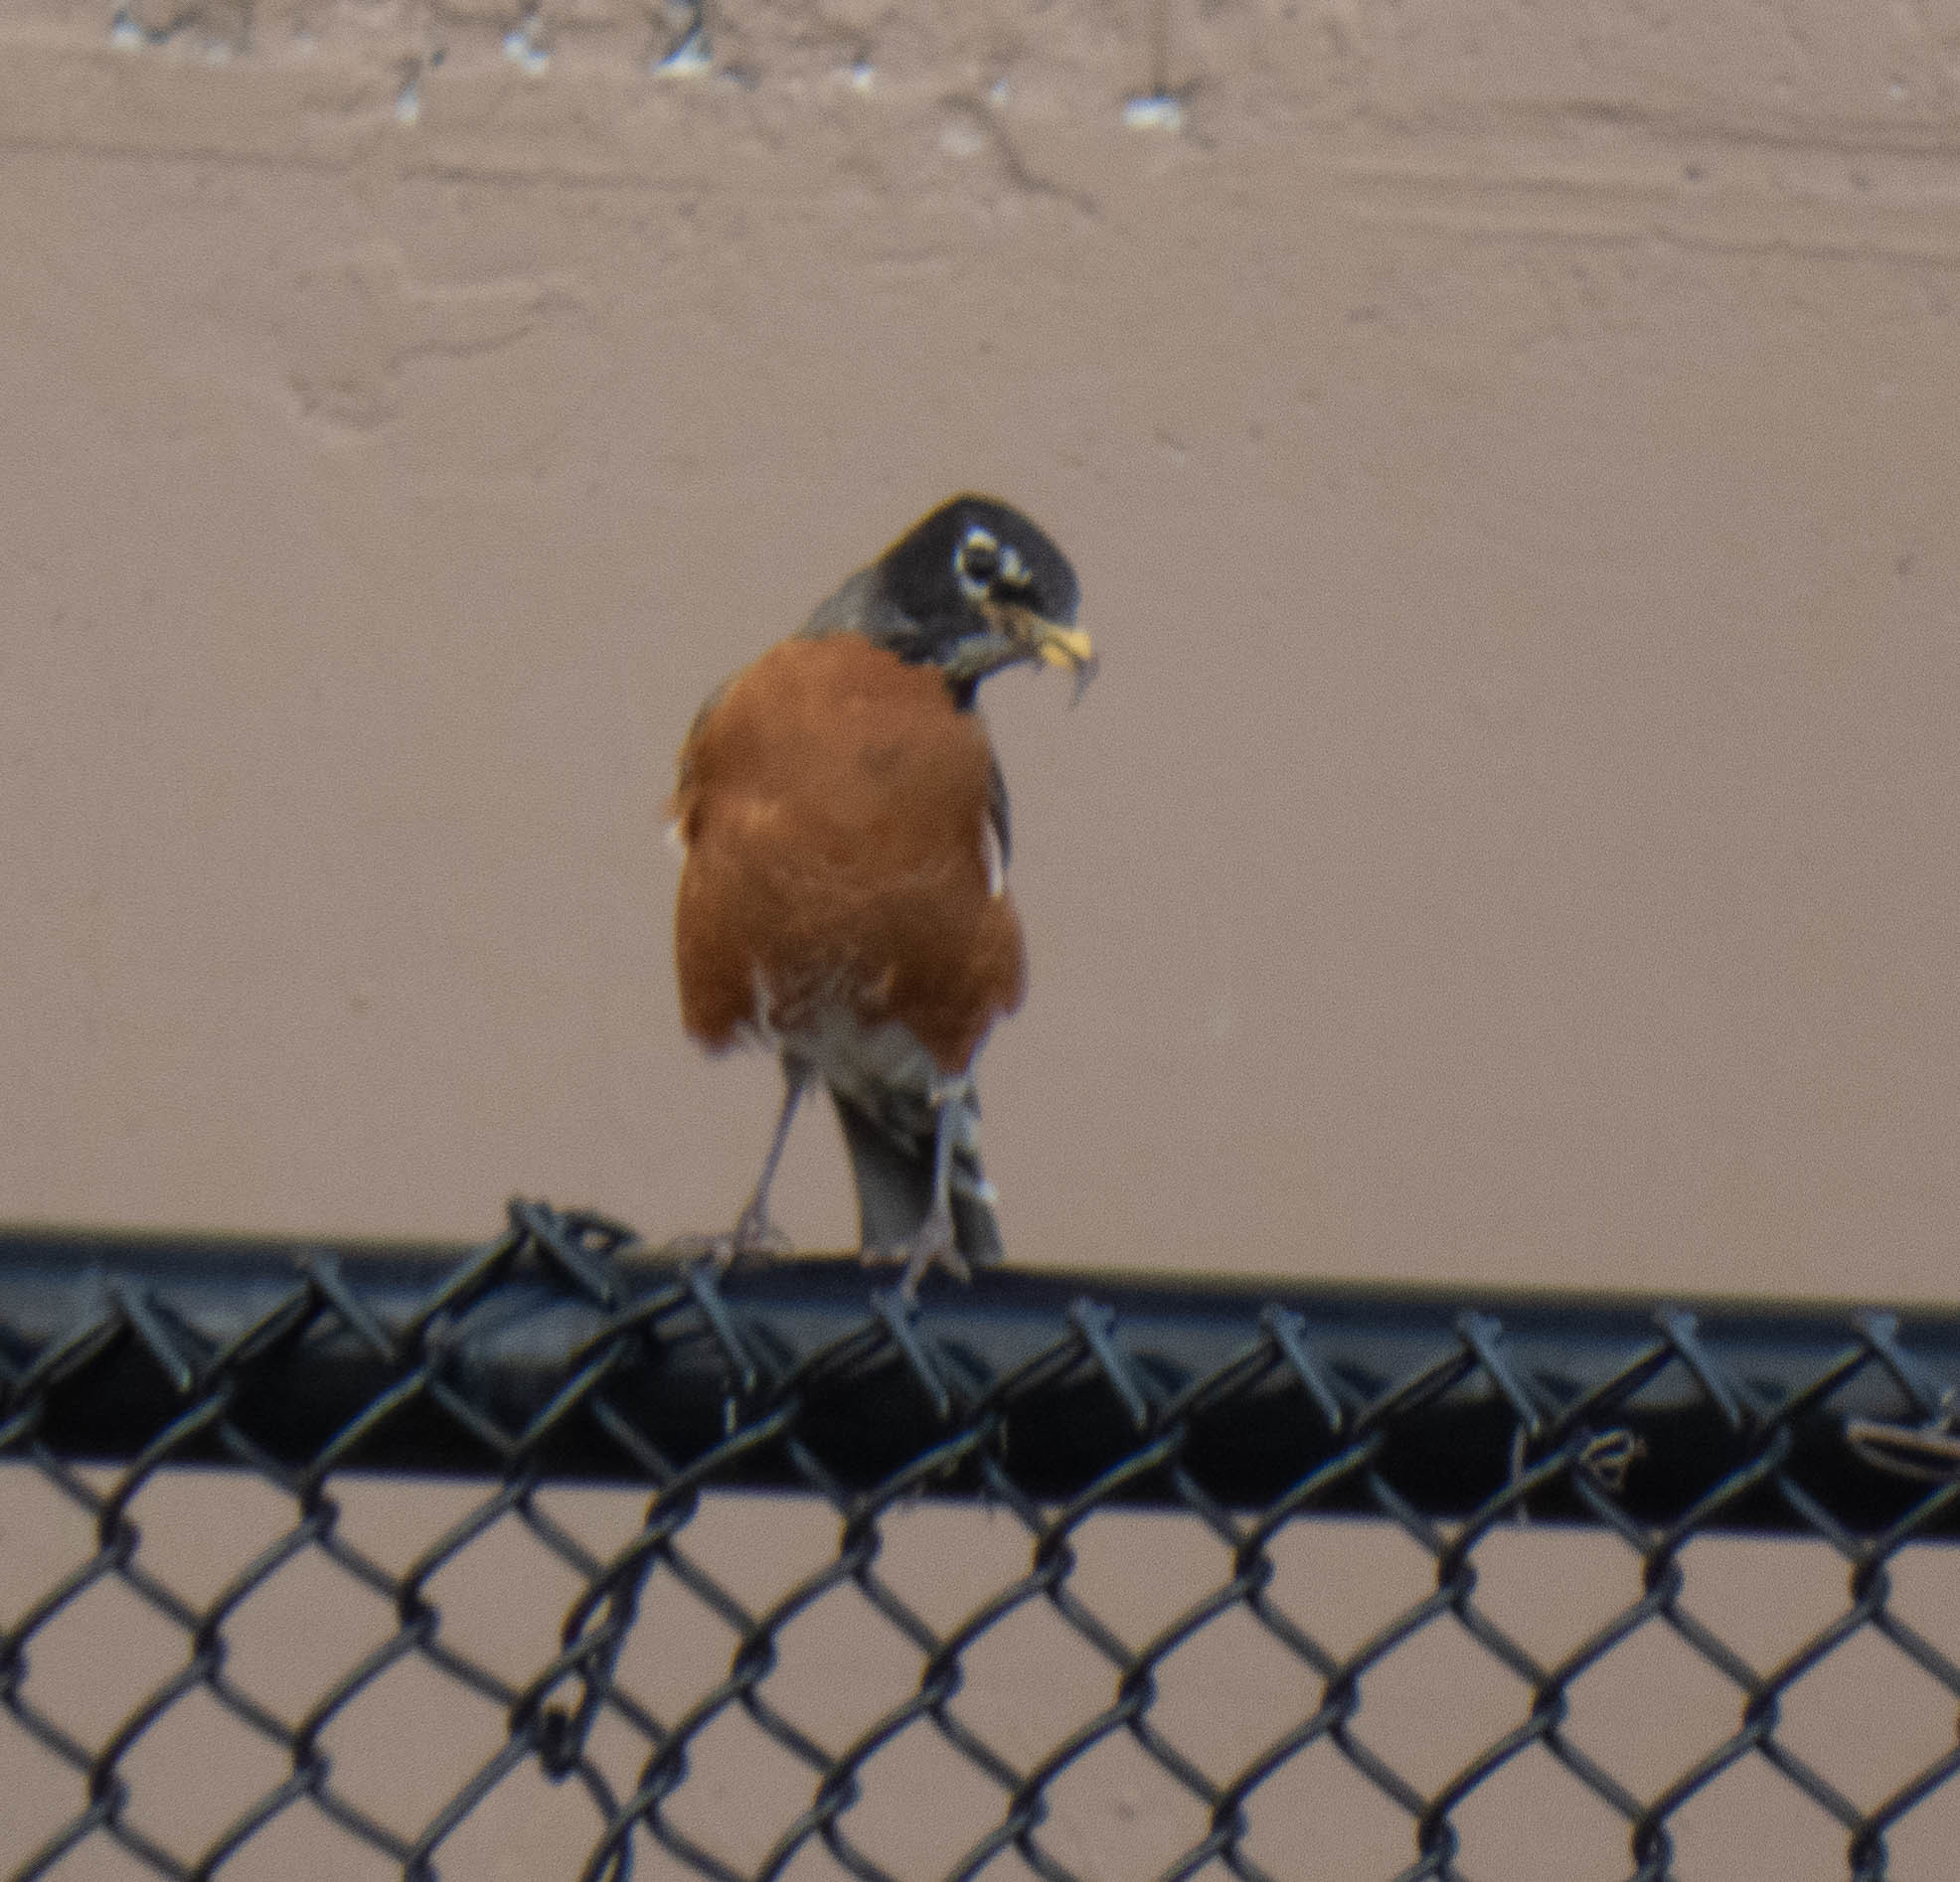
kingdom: Animalia
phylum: Chordata
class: Aves
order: Passeriformes
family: Turdidae
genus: Turdus
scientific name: Turdus migratorius
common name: American robin
